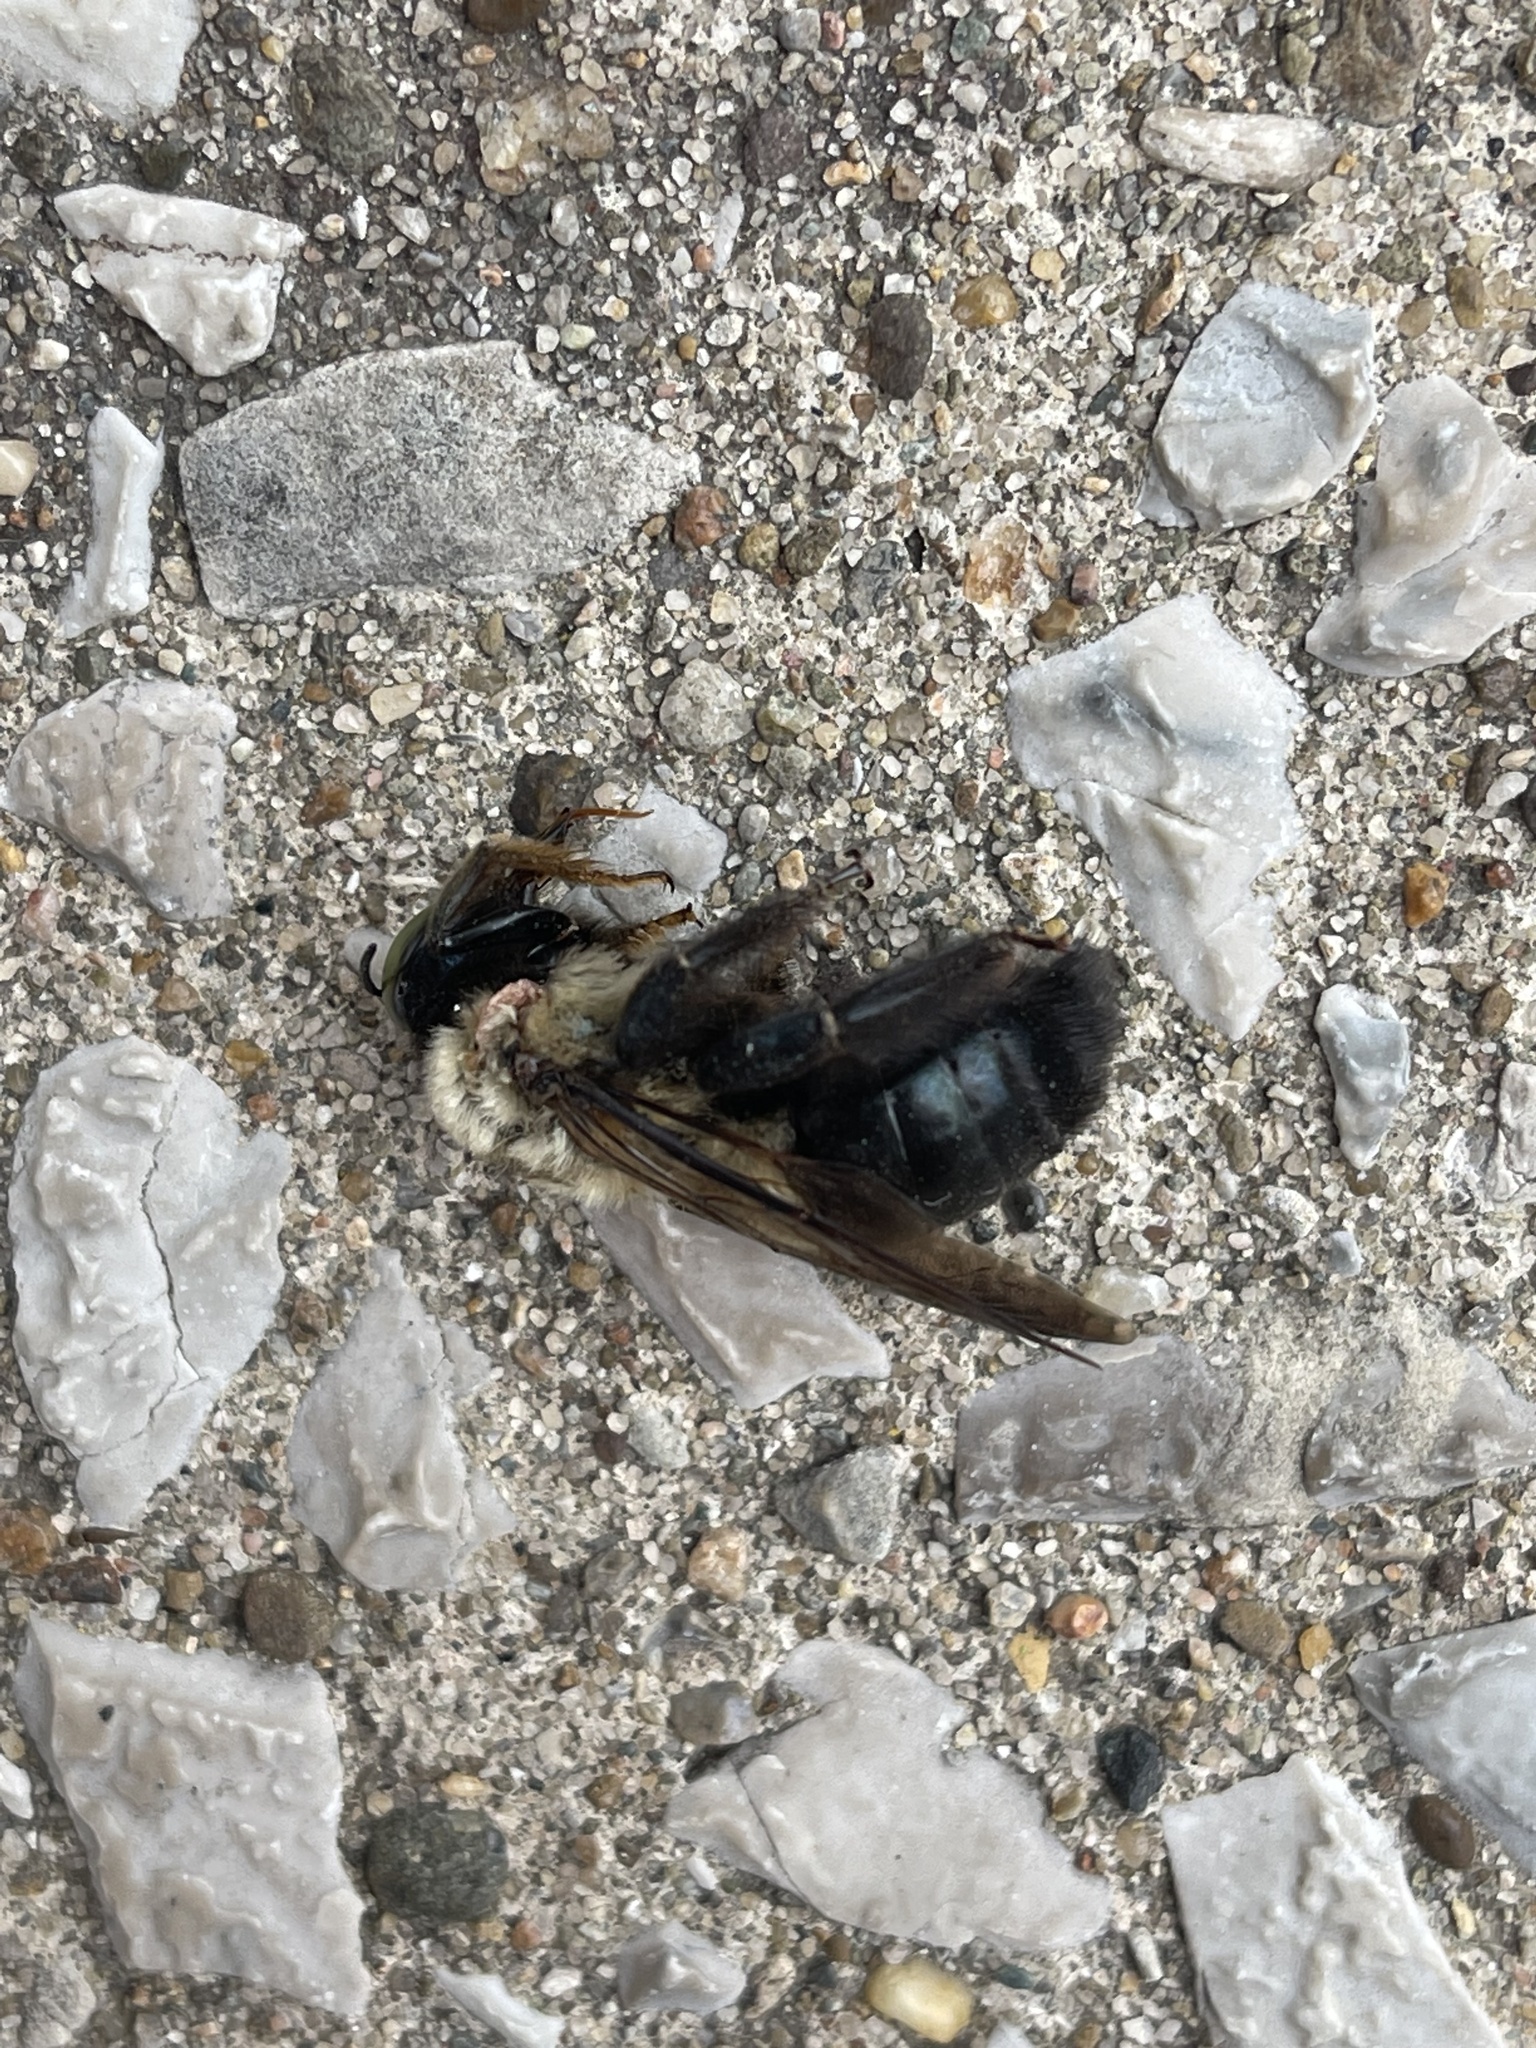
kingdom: Animalia
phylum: Arthropoda
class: Insecta
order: Hymenoptera
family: Apidae
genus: Xylocopa
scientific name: Xylocopa virginica
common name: Carpenter bee
